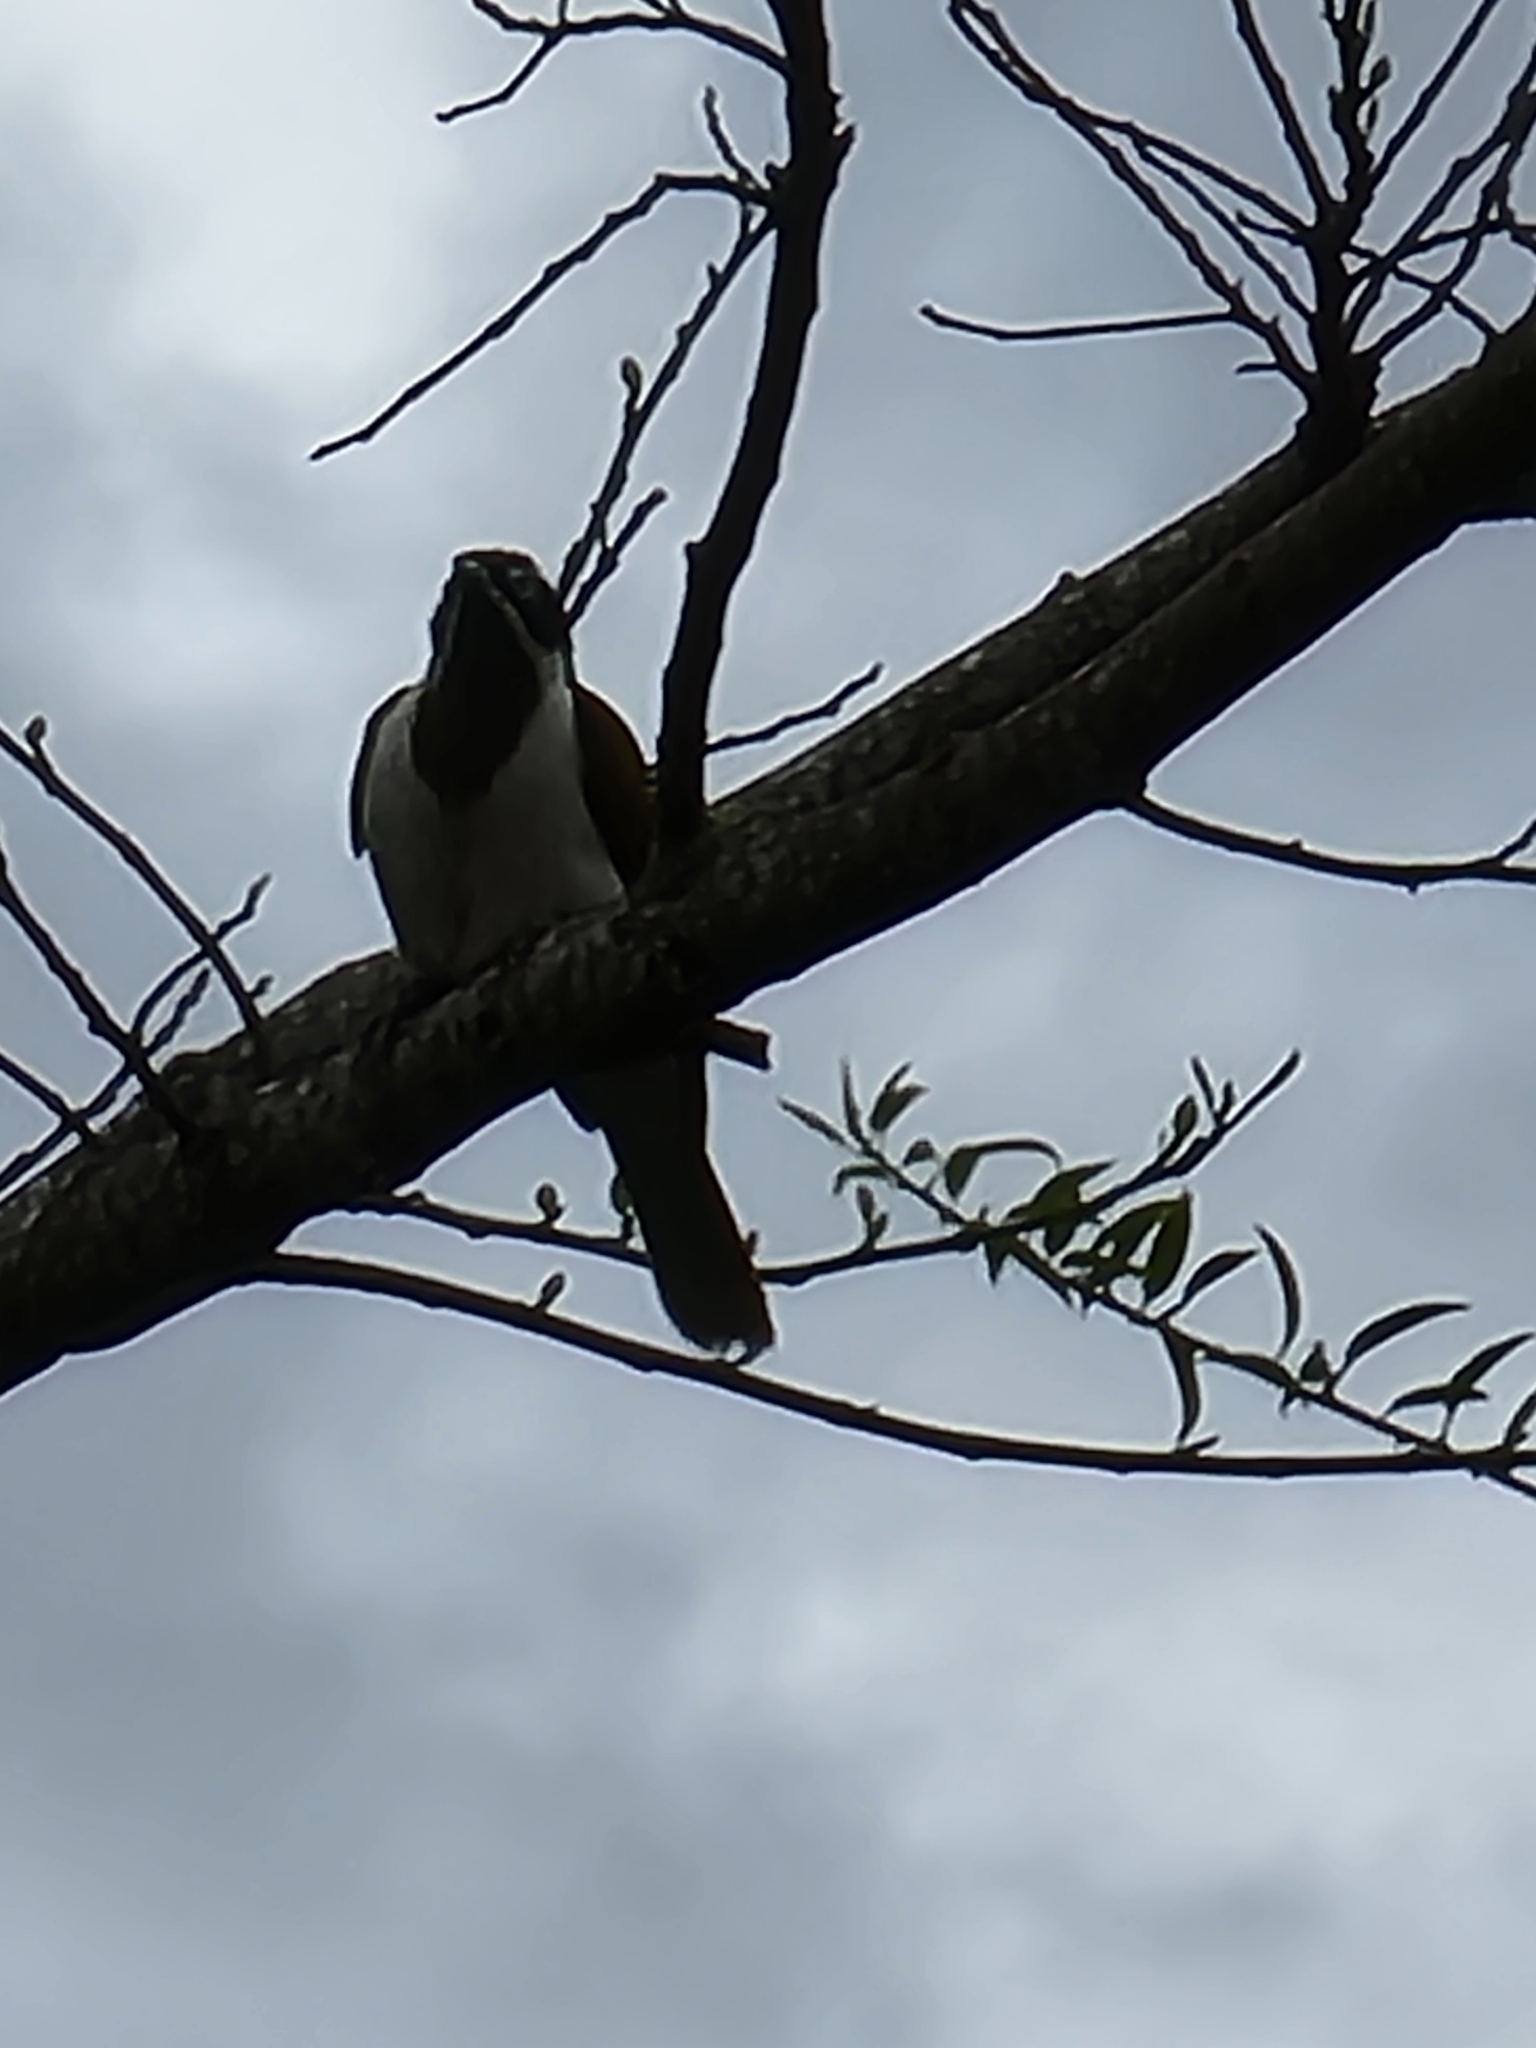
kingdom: Animalia
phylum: Chordata
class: Aves
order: Passeriformes
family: Meliphagidae
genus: Entomyzon
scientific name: Entomyzon cyanotis
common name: Blue-faced honeyeater
